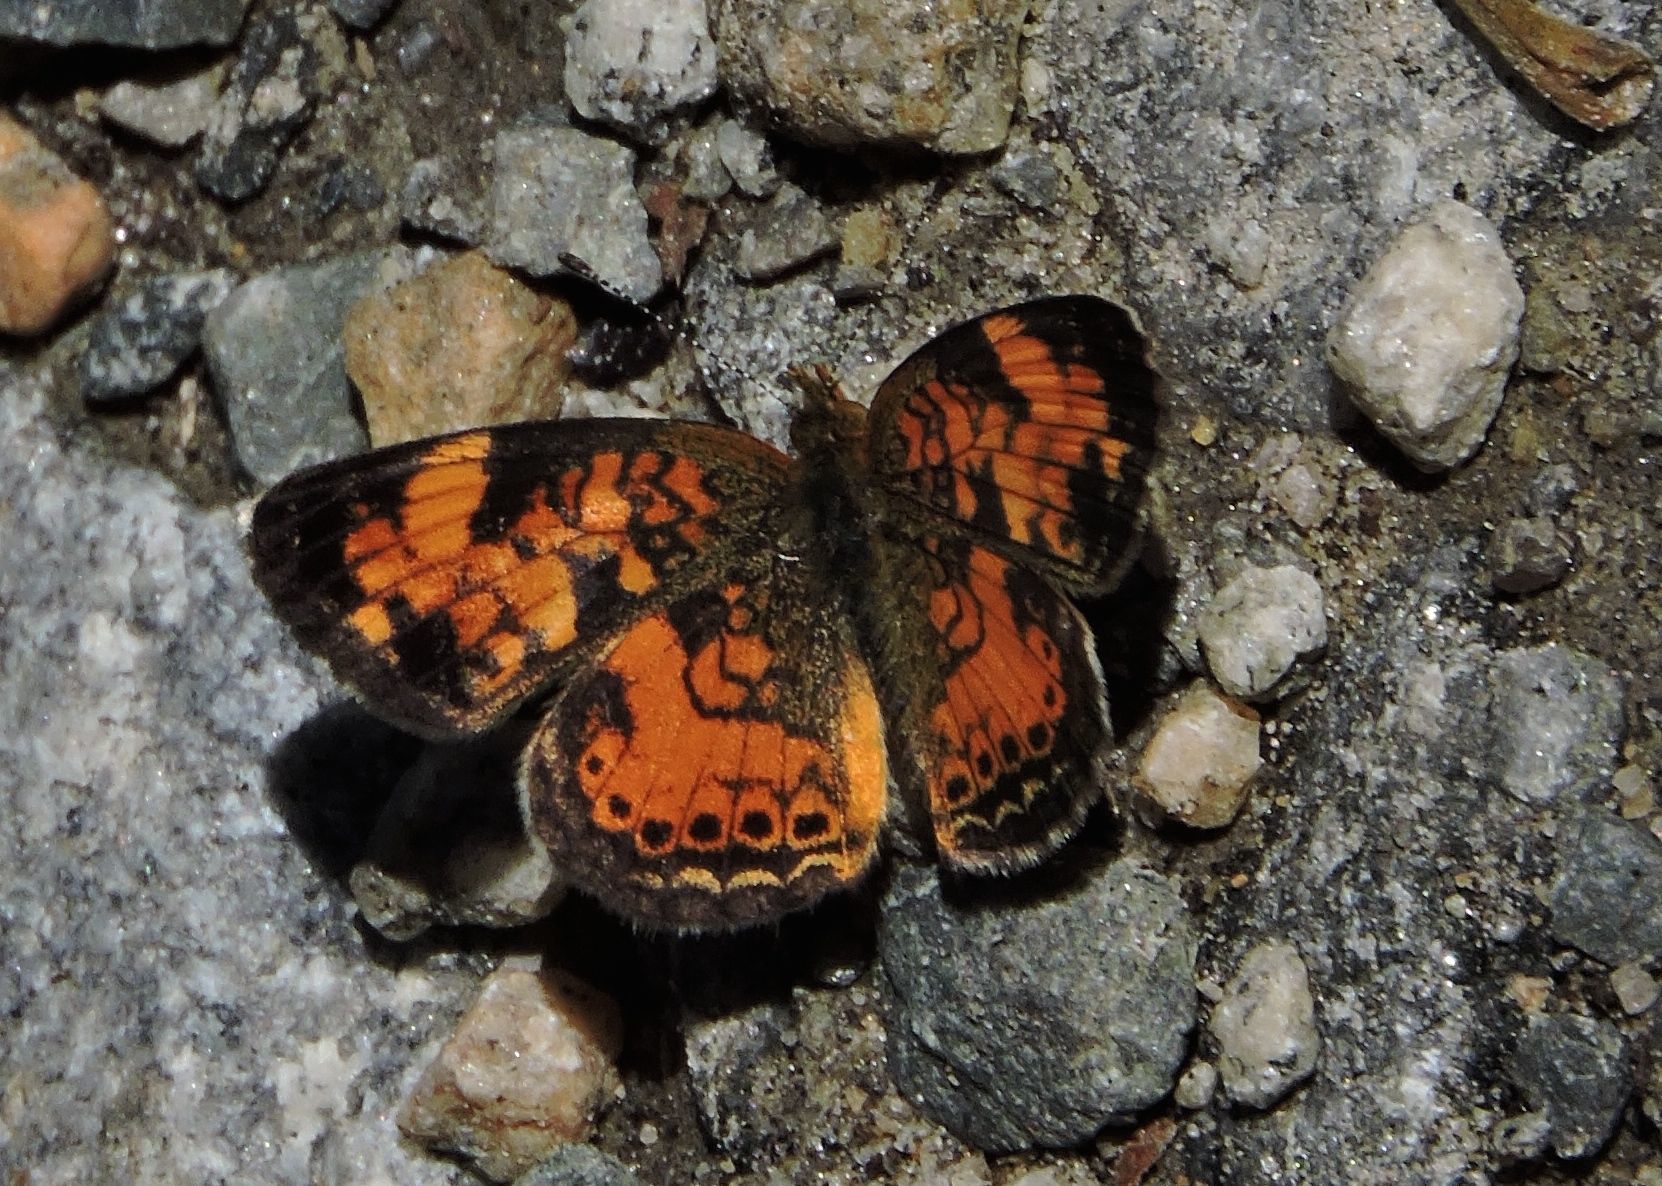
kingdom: Animalia
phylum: Arthropoda
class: Insecta
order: Lepidoptera
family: Nymphalidae
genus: Phyciodes
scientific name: Phyciodes tharos
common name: Pearl crescent
